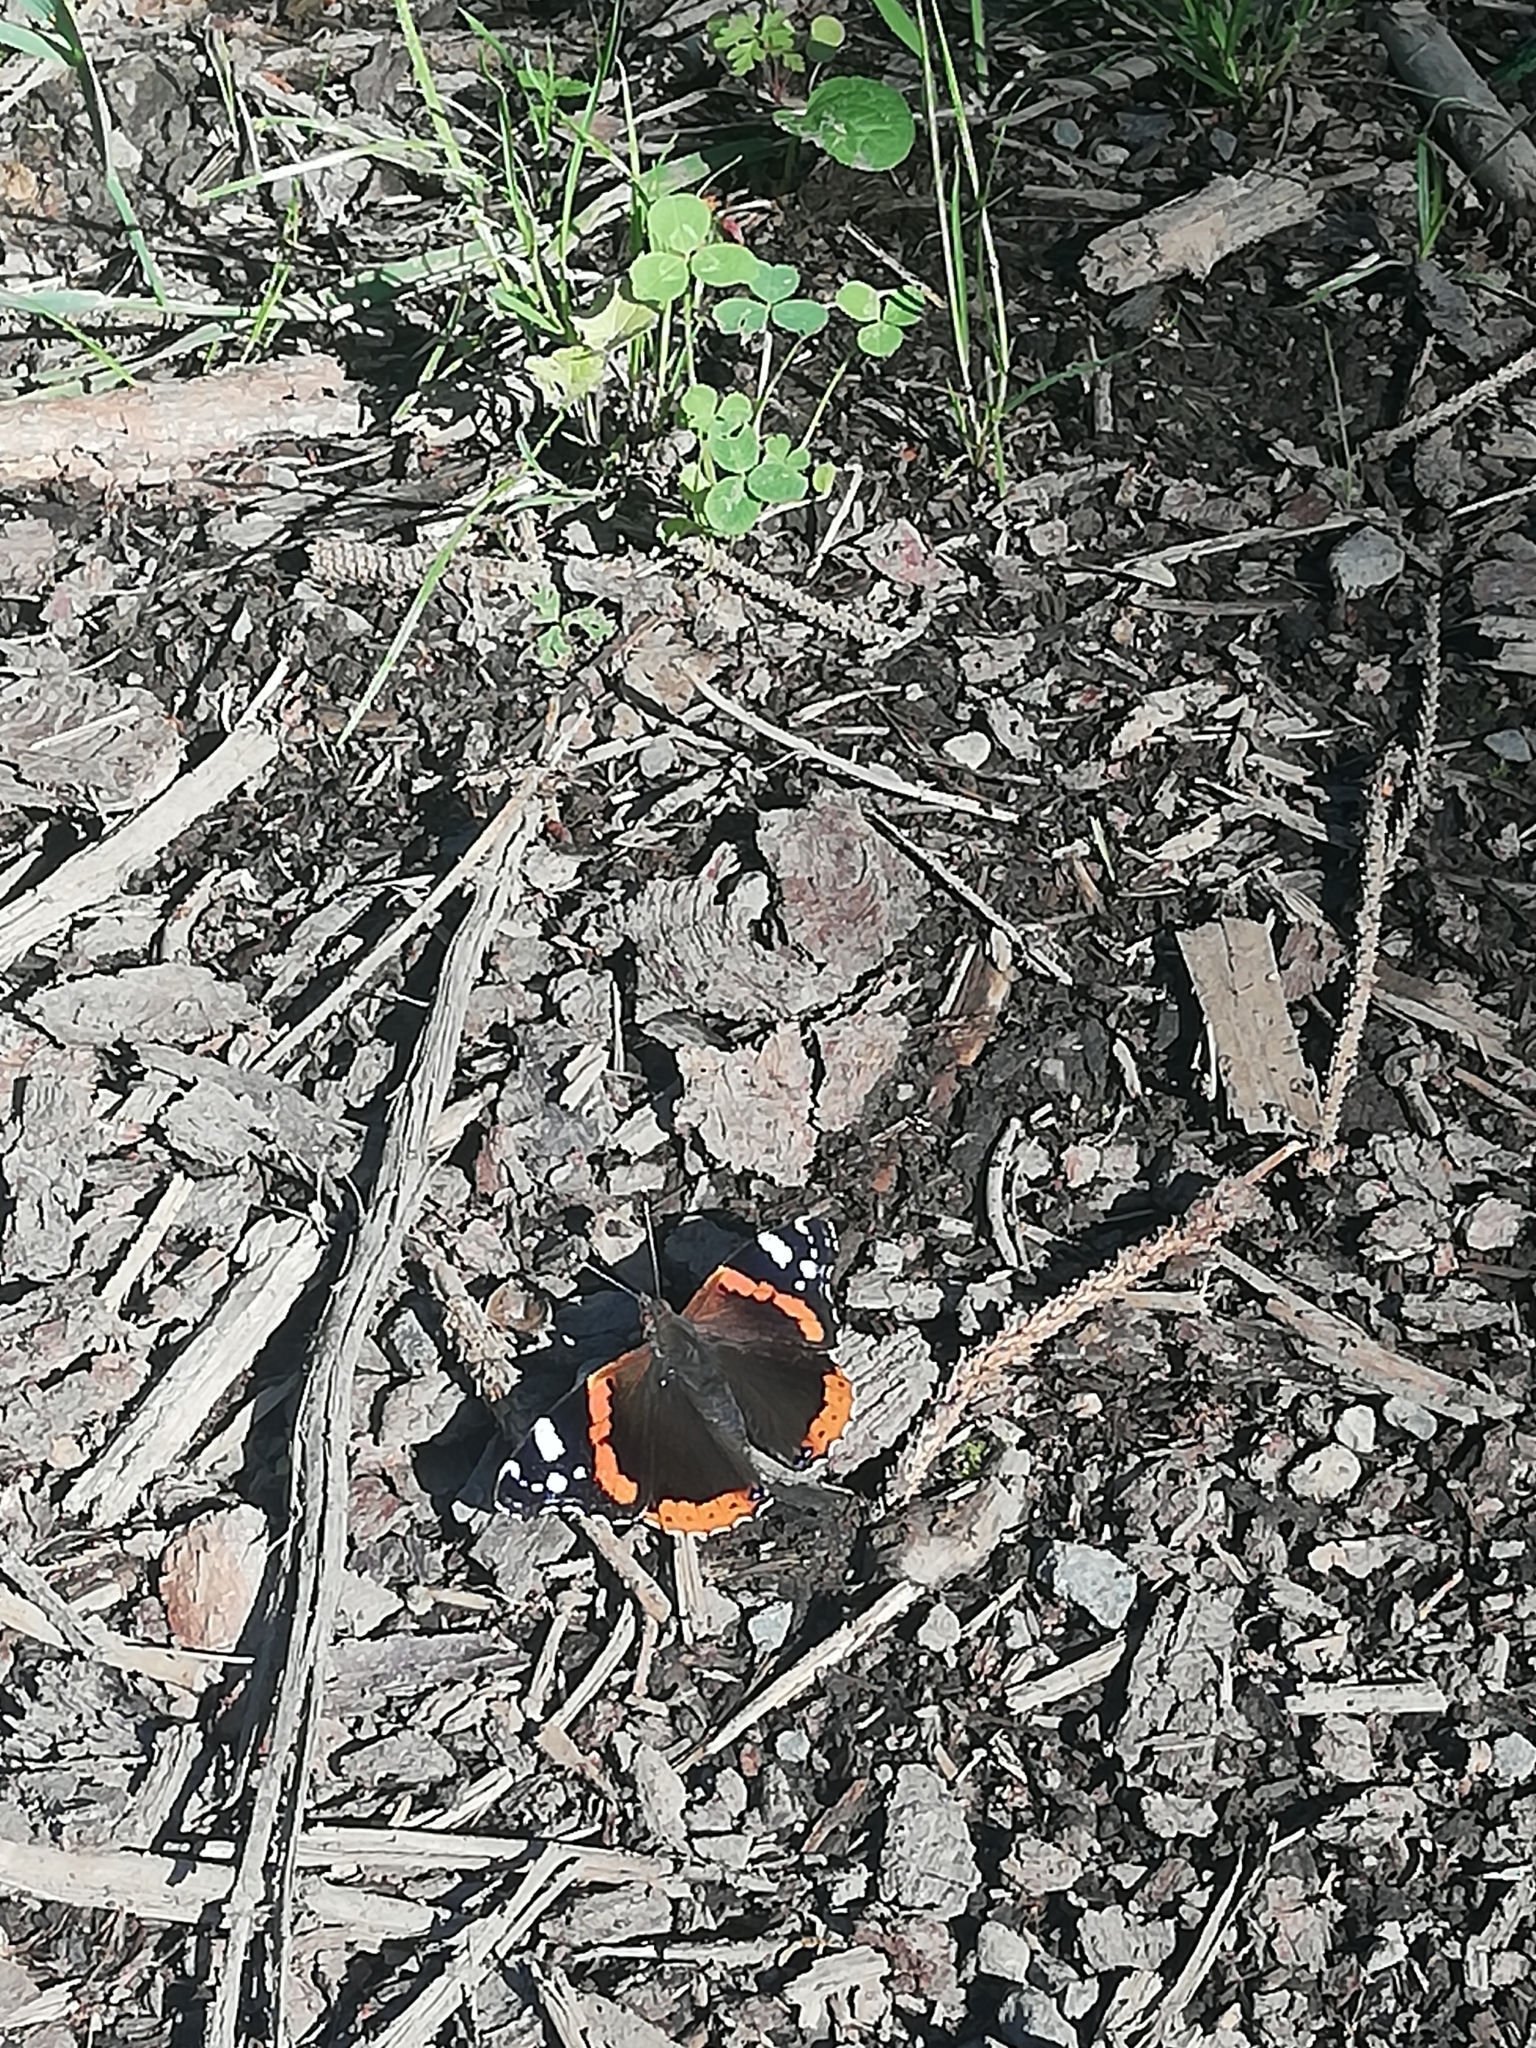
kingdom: Animalia
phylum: Arthropoda
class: Insecta
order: Lepidoptera
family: Nymphalidae
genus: Vanessa
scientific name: Vanessa atalanta
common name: Red admiral
